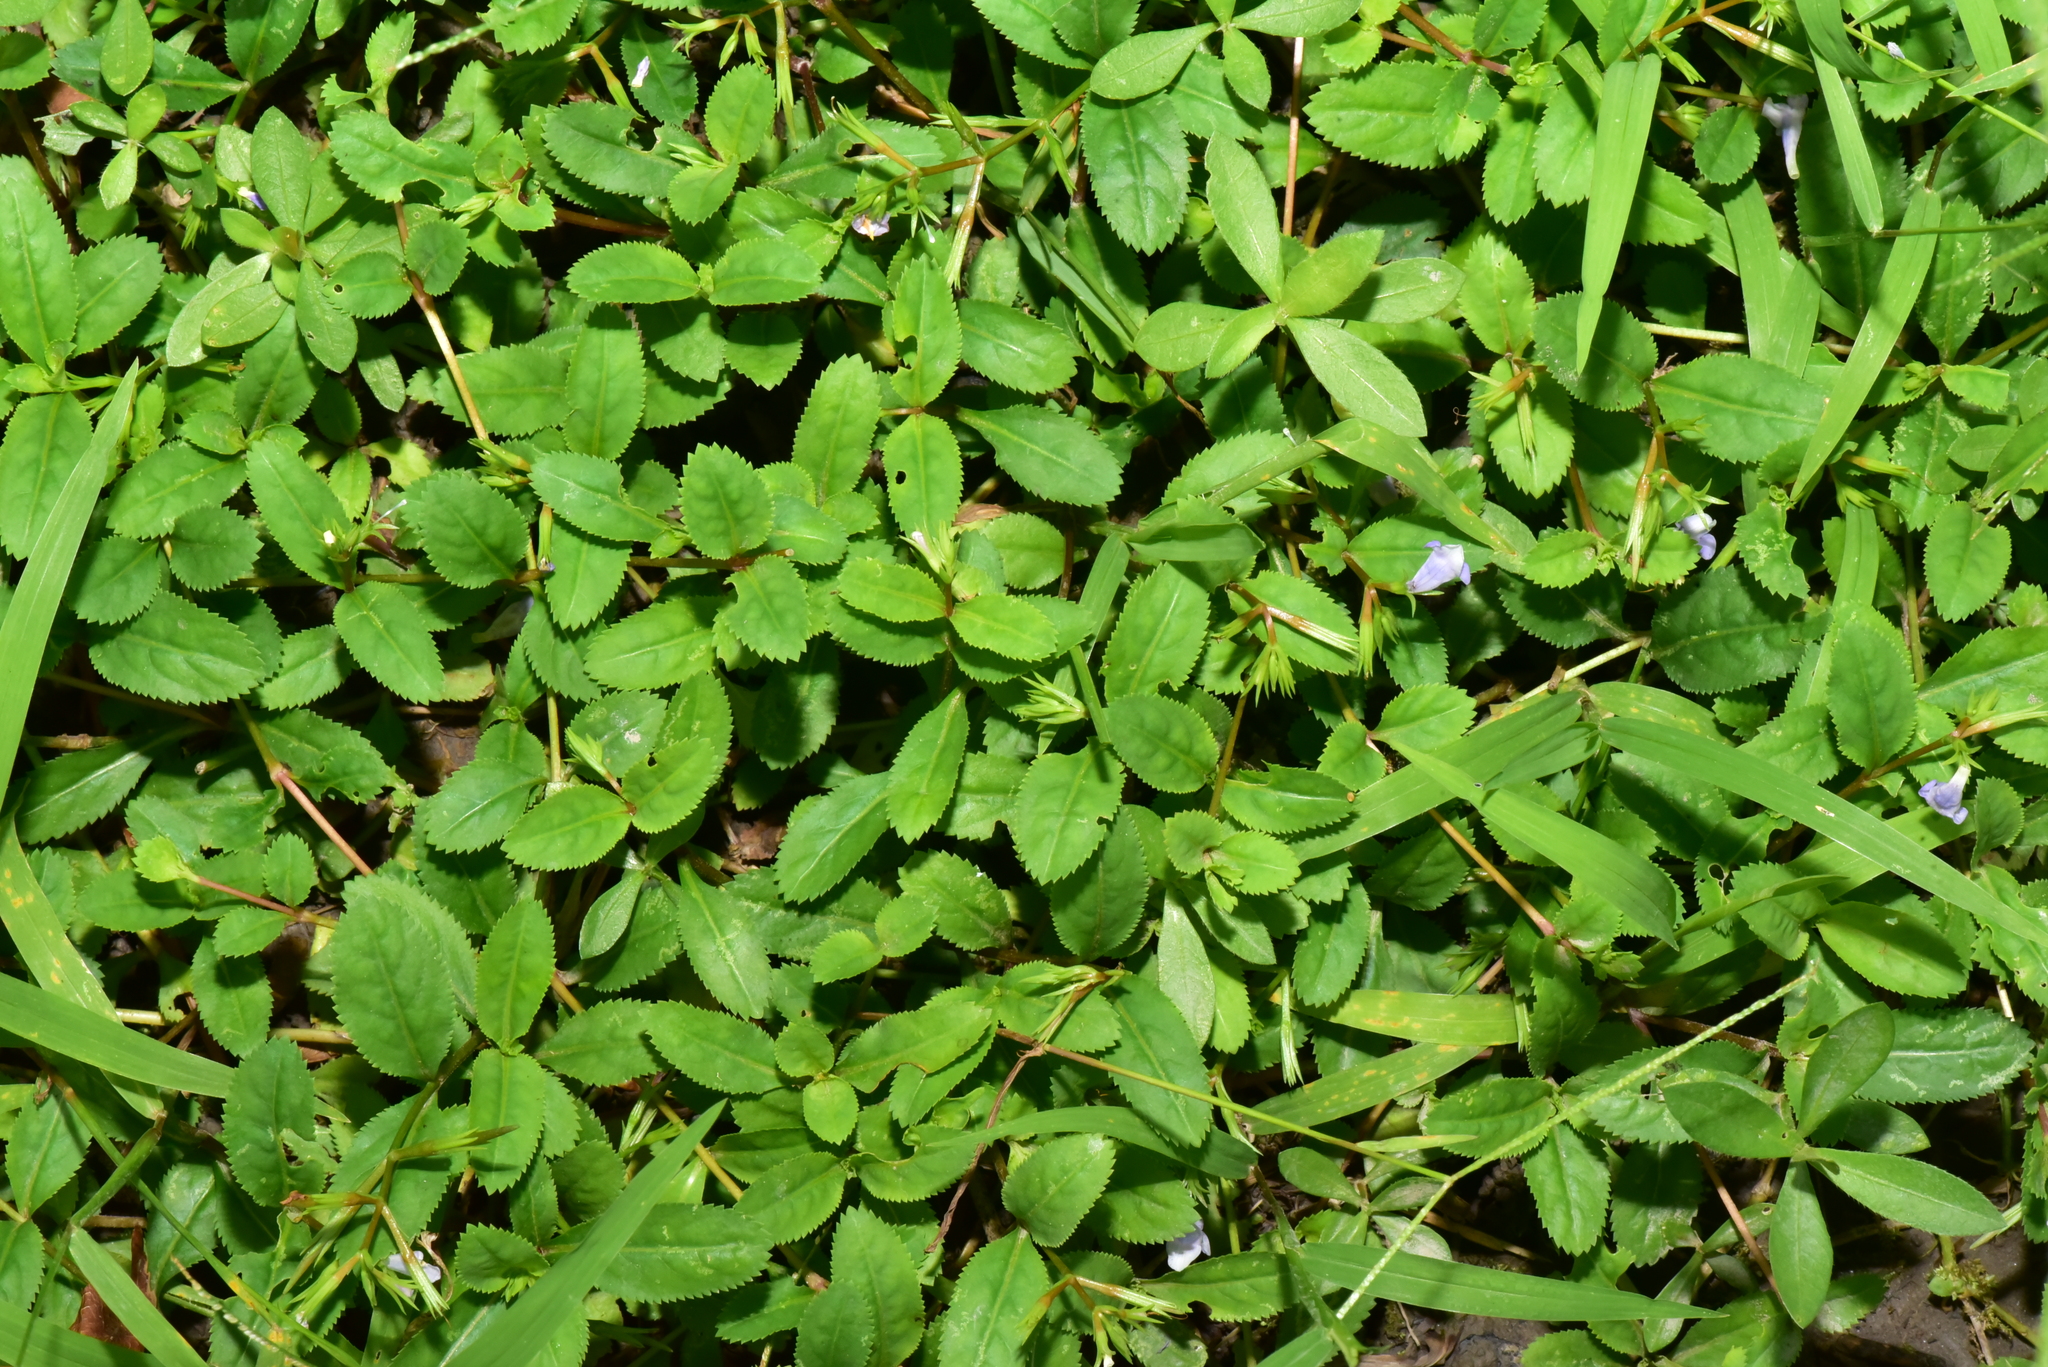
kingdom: Plantae
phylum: Tracheophyta
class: Magnoliopsida
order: Lamiales
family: Linderniaceae
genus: Bonnaya
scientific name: Bonnaya ruelloides
